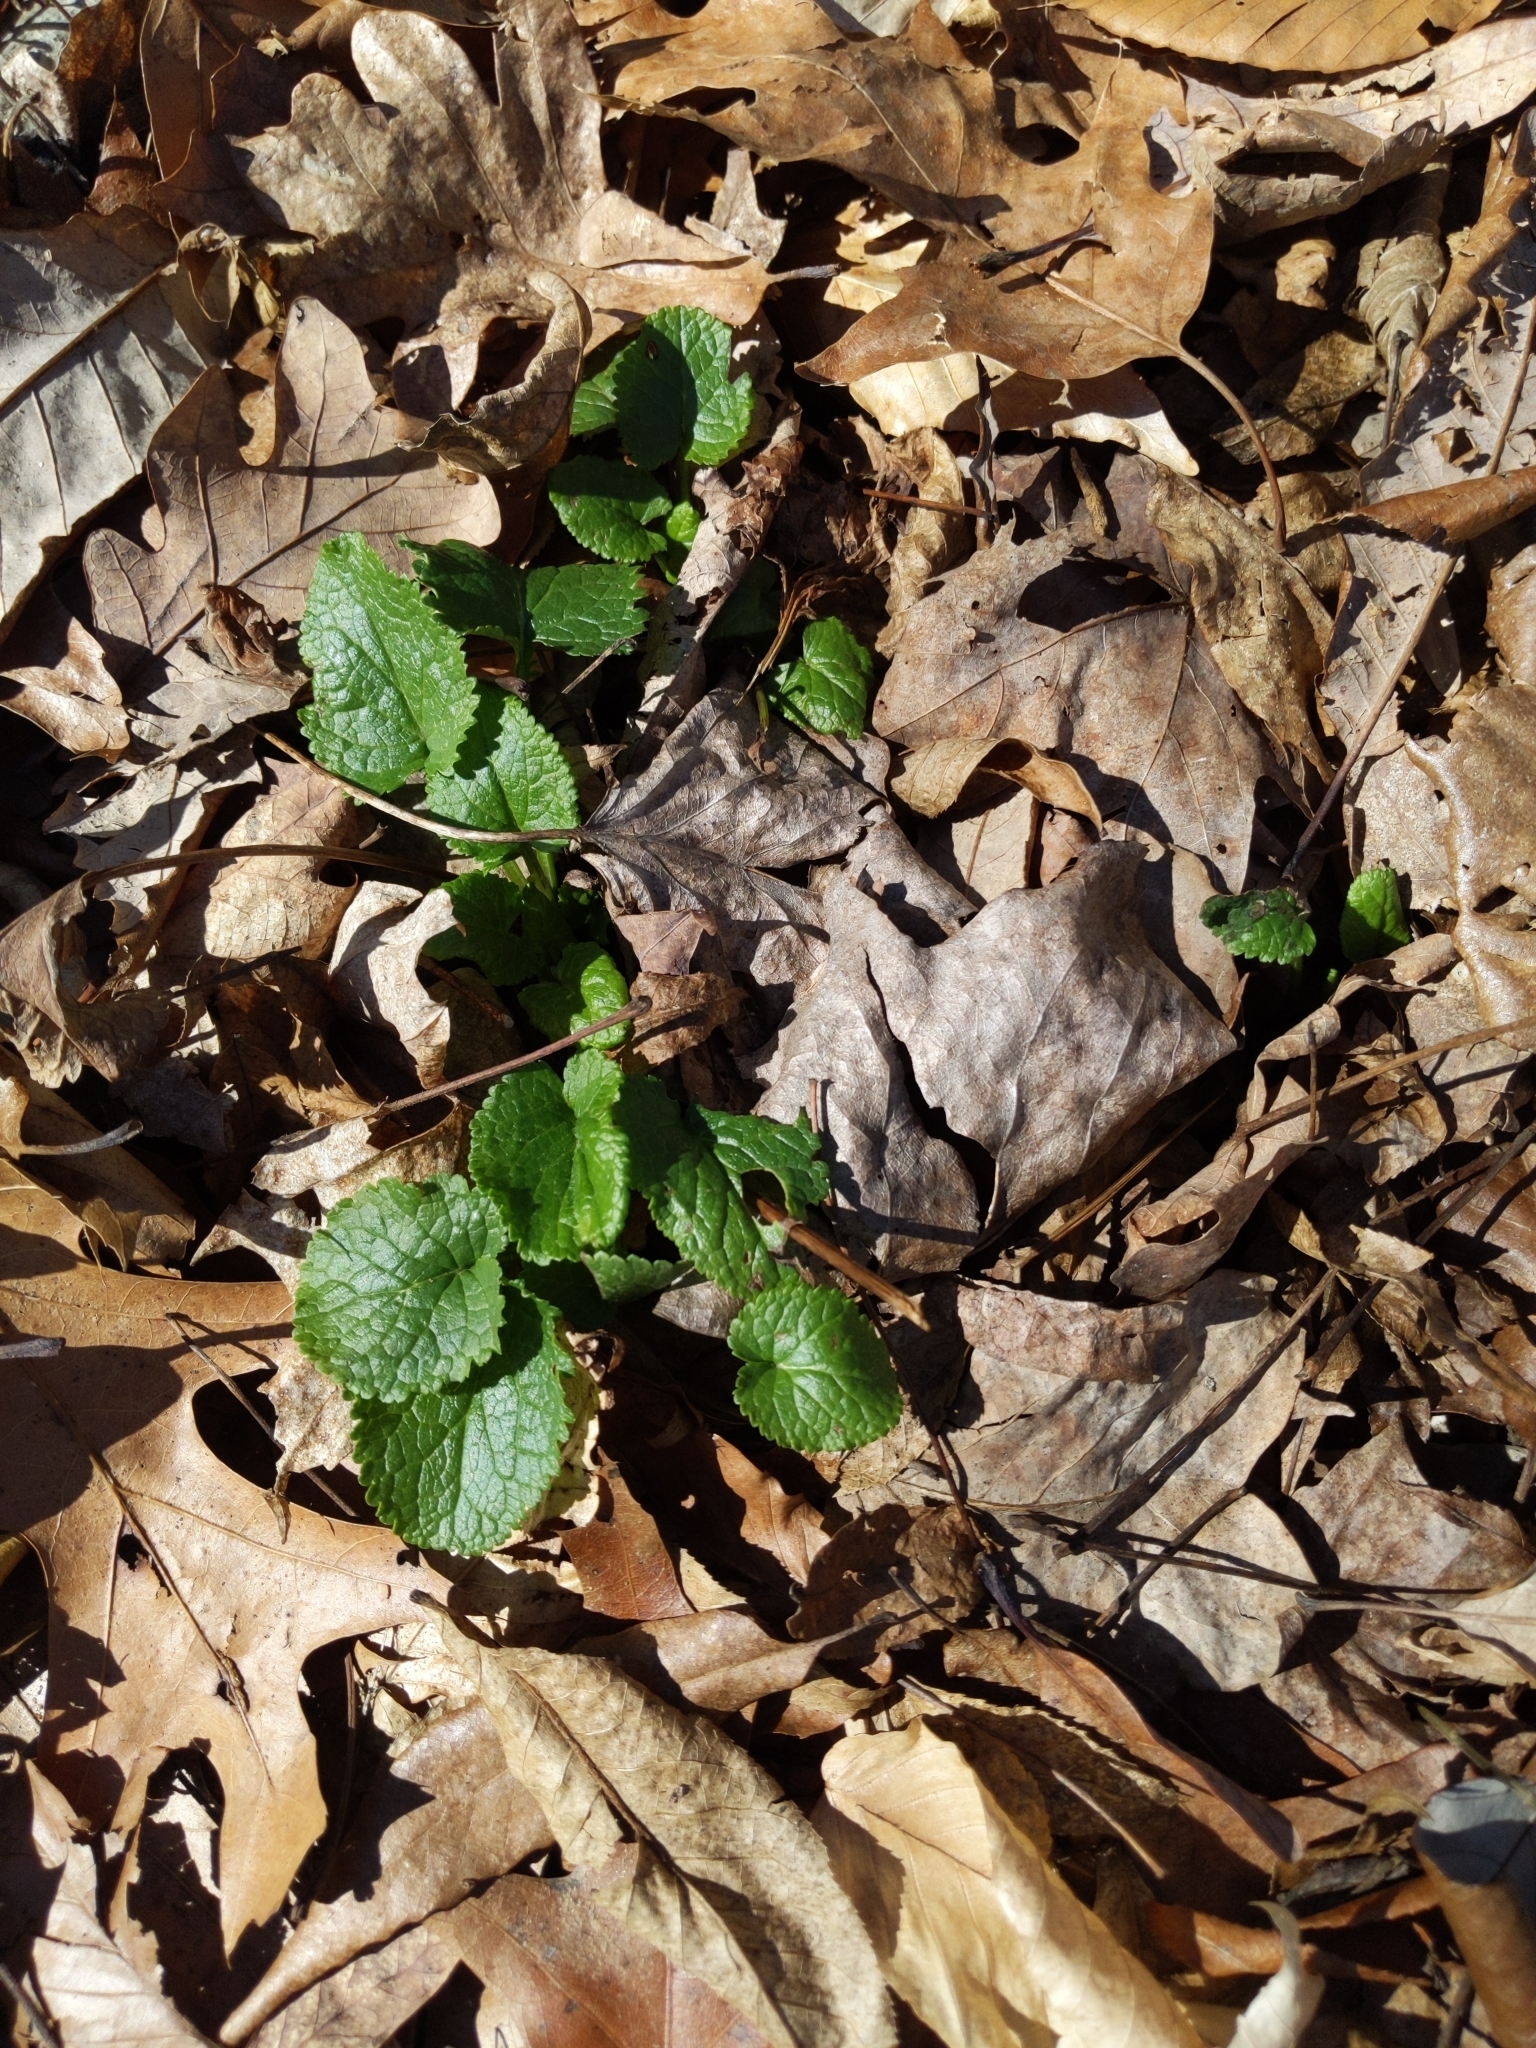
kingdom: Plantae
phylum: Tracheophyta
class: Magnoliopsida
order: Asterales
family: Asteraceae
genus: Packera
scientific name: Packera aurea
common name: Golden groundsel
